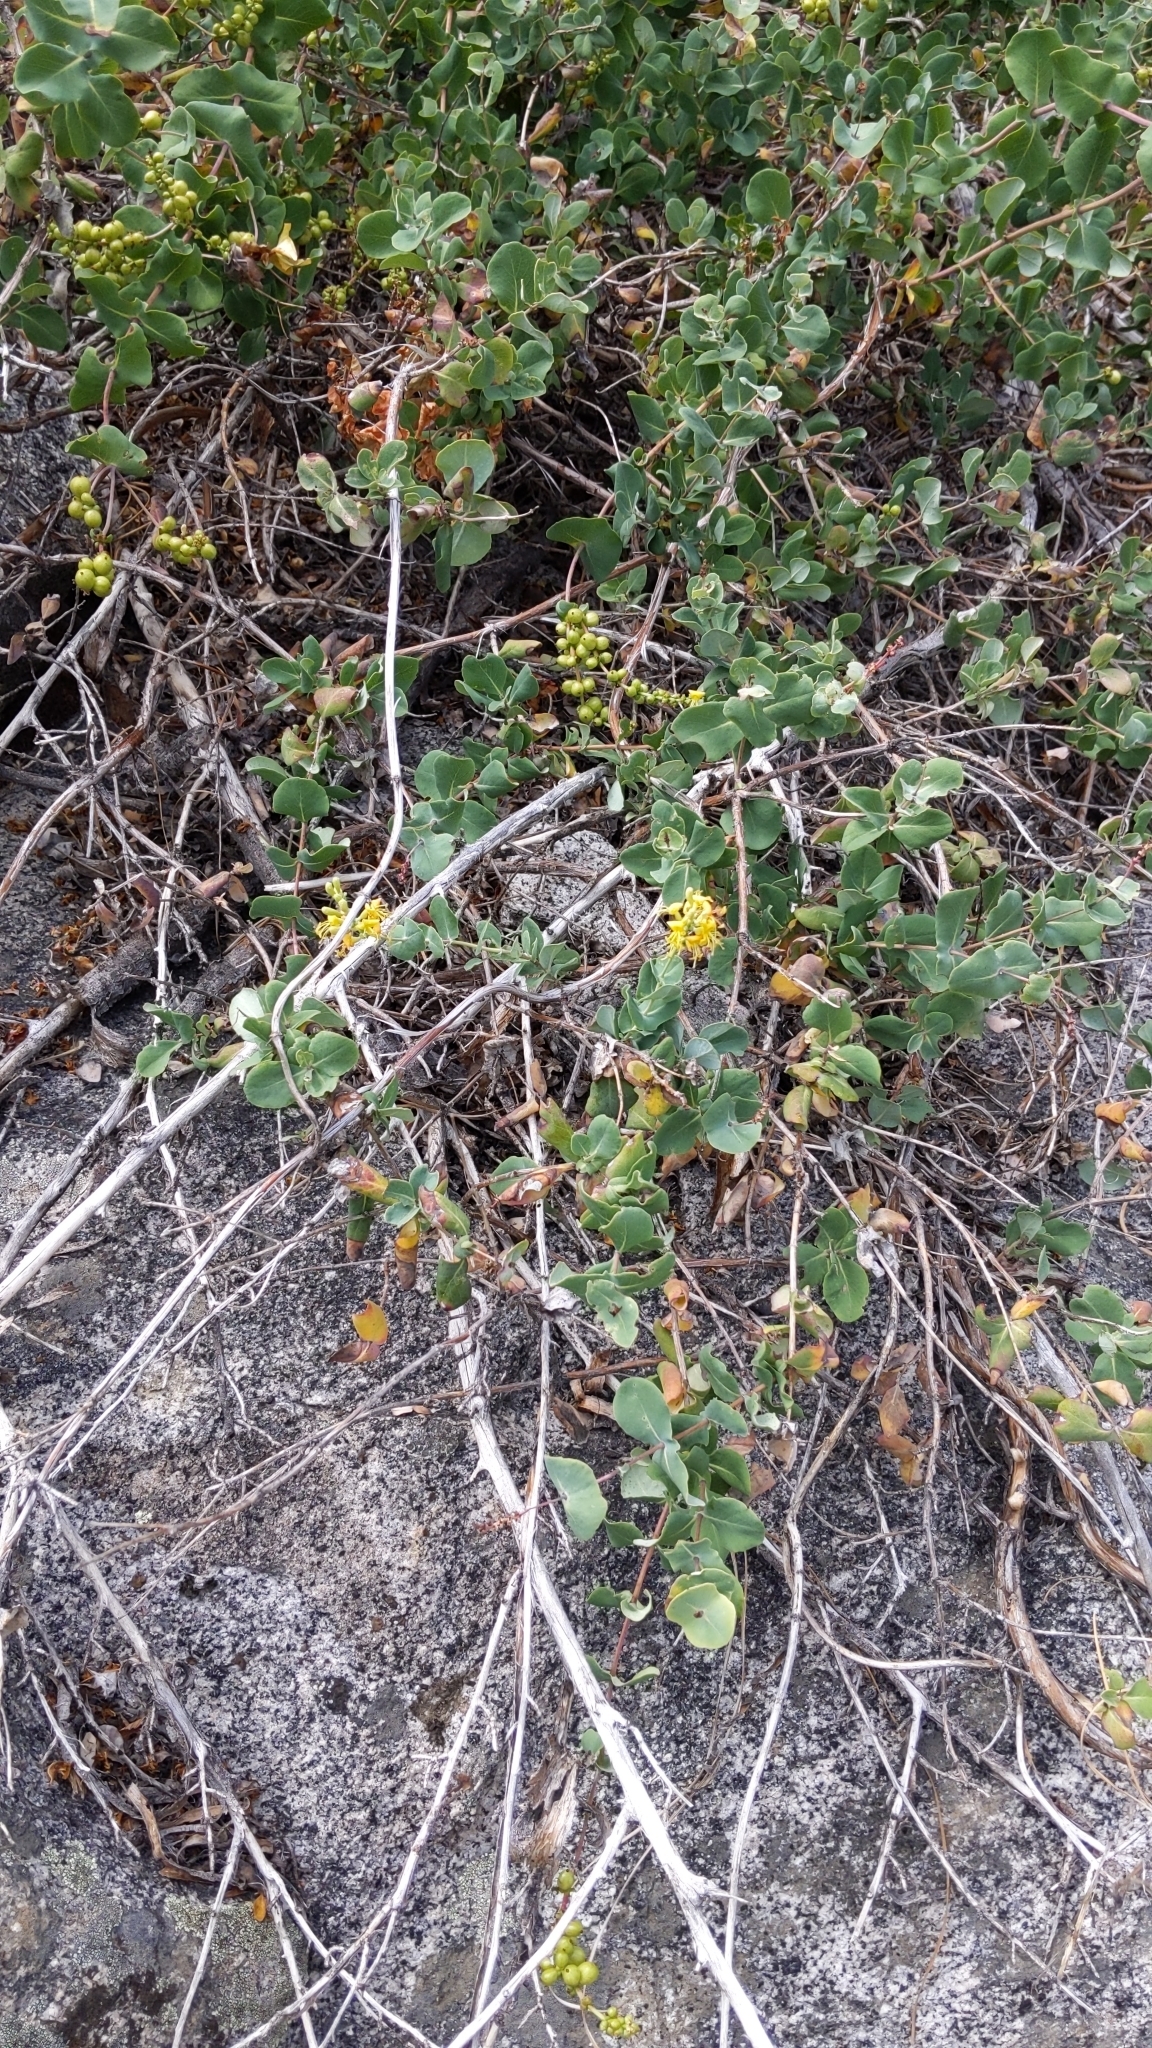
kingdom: Plantae
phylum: Tracheophyta
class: Magnoliopsida
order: Dipsacales
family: Caprifoliaceae
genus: Lonicera
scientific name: Lonicera interrupta
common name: Chaparral honeysuckle
